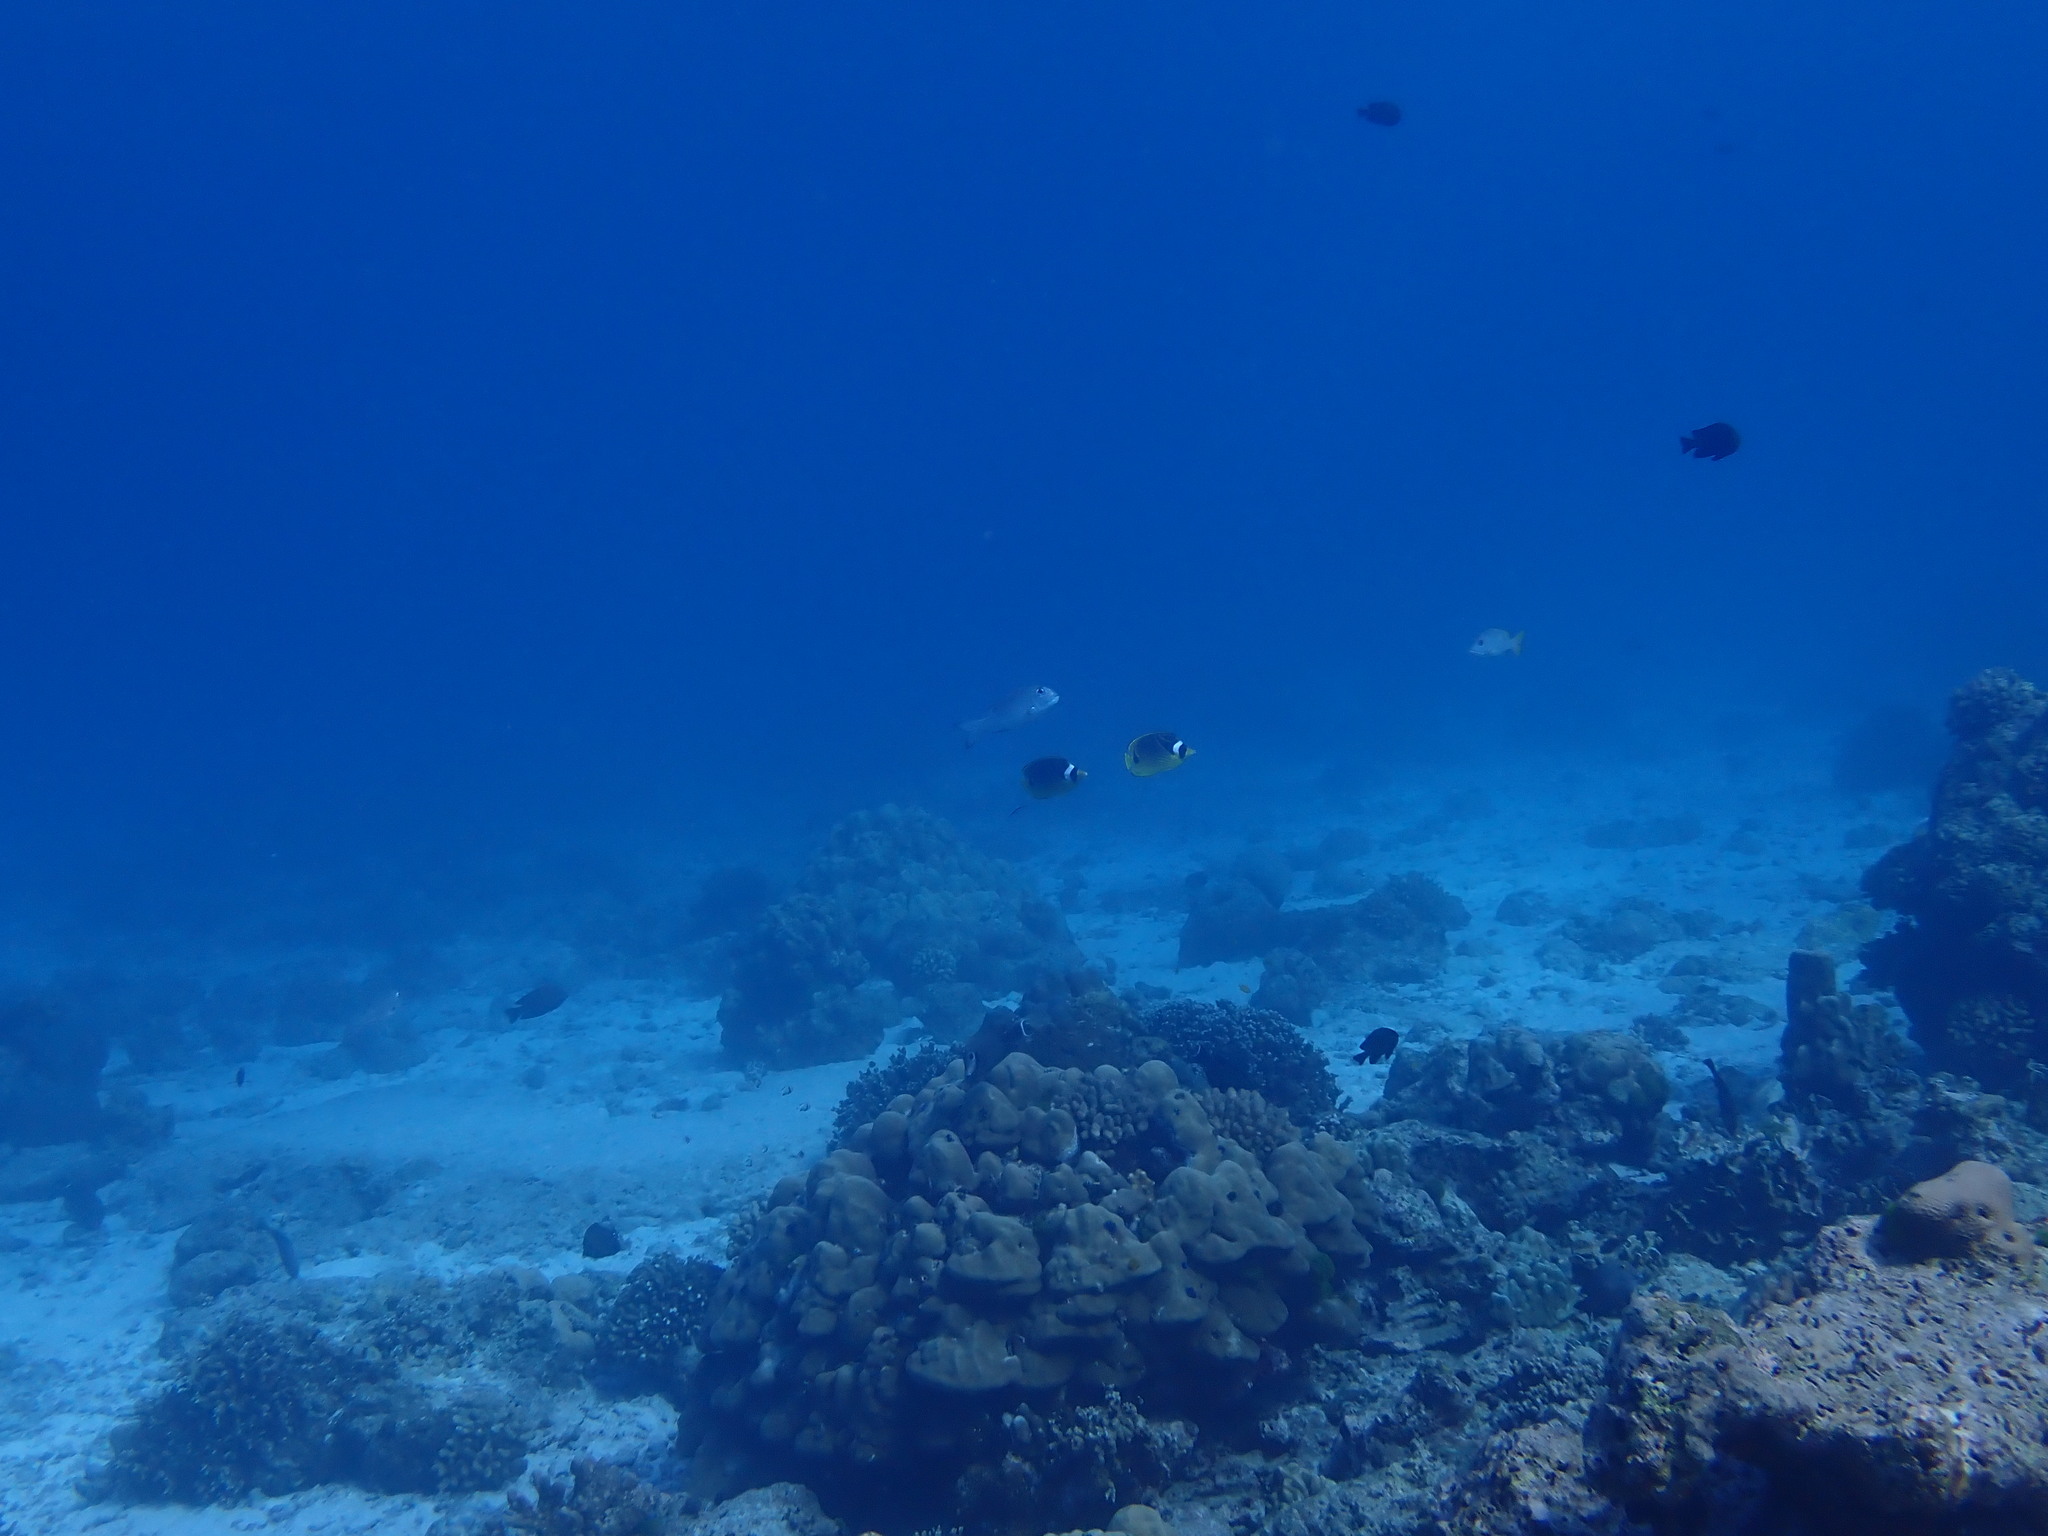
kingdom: Animalia
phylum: Chordata
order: Perciformes
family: Chaetodontidae
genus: Chaetodon
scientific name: Chaetodon lunula
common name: Raccoon butterflyfish
